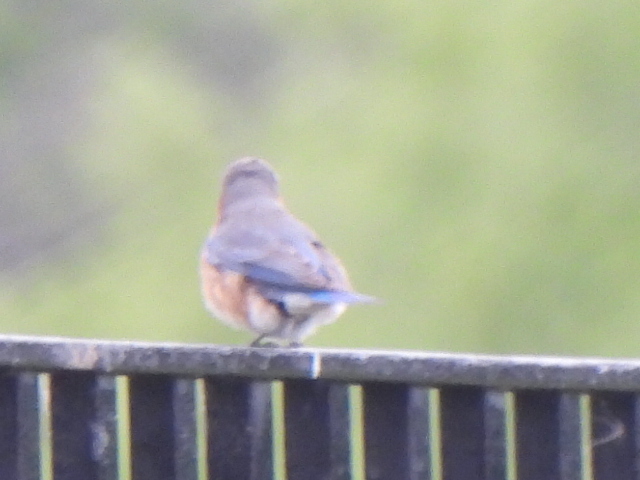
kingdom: Animalia
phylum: Chordata
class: Aves
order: Passeriformes
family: Turdidae
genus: Sialia
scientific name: Sialia sialis
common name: Eastern bluebird
